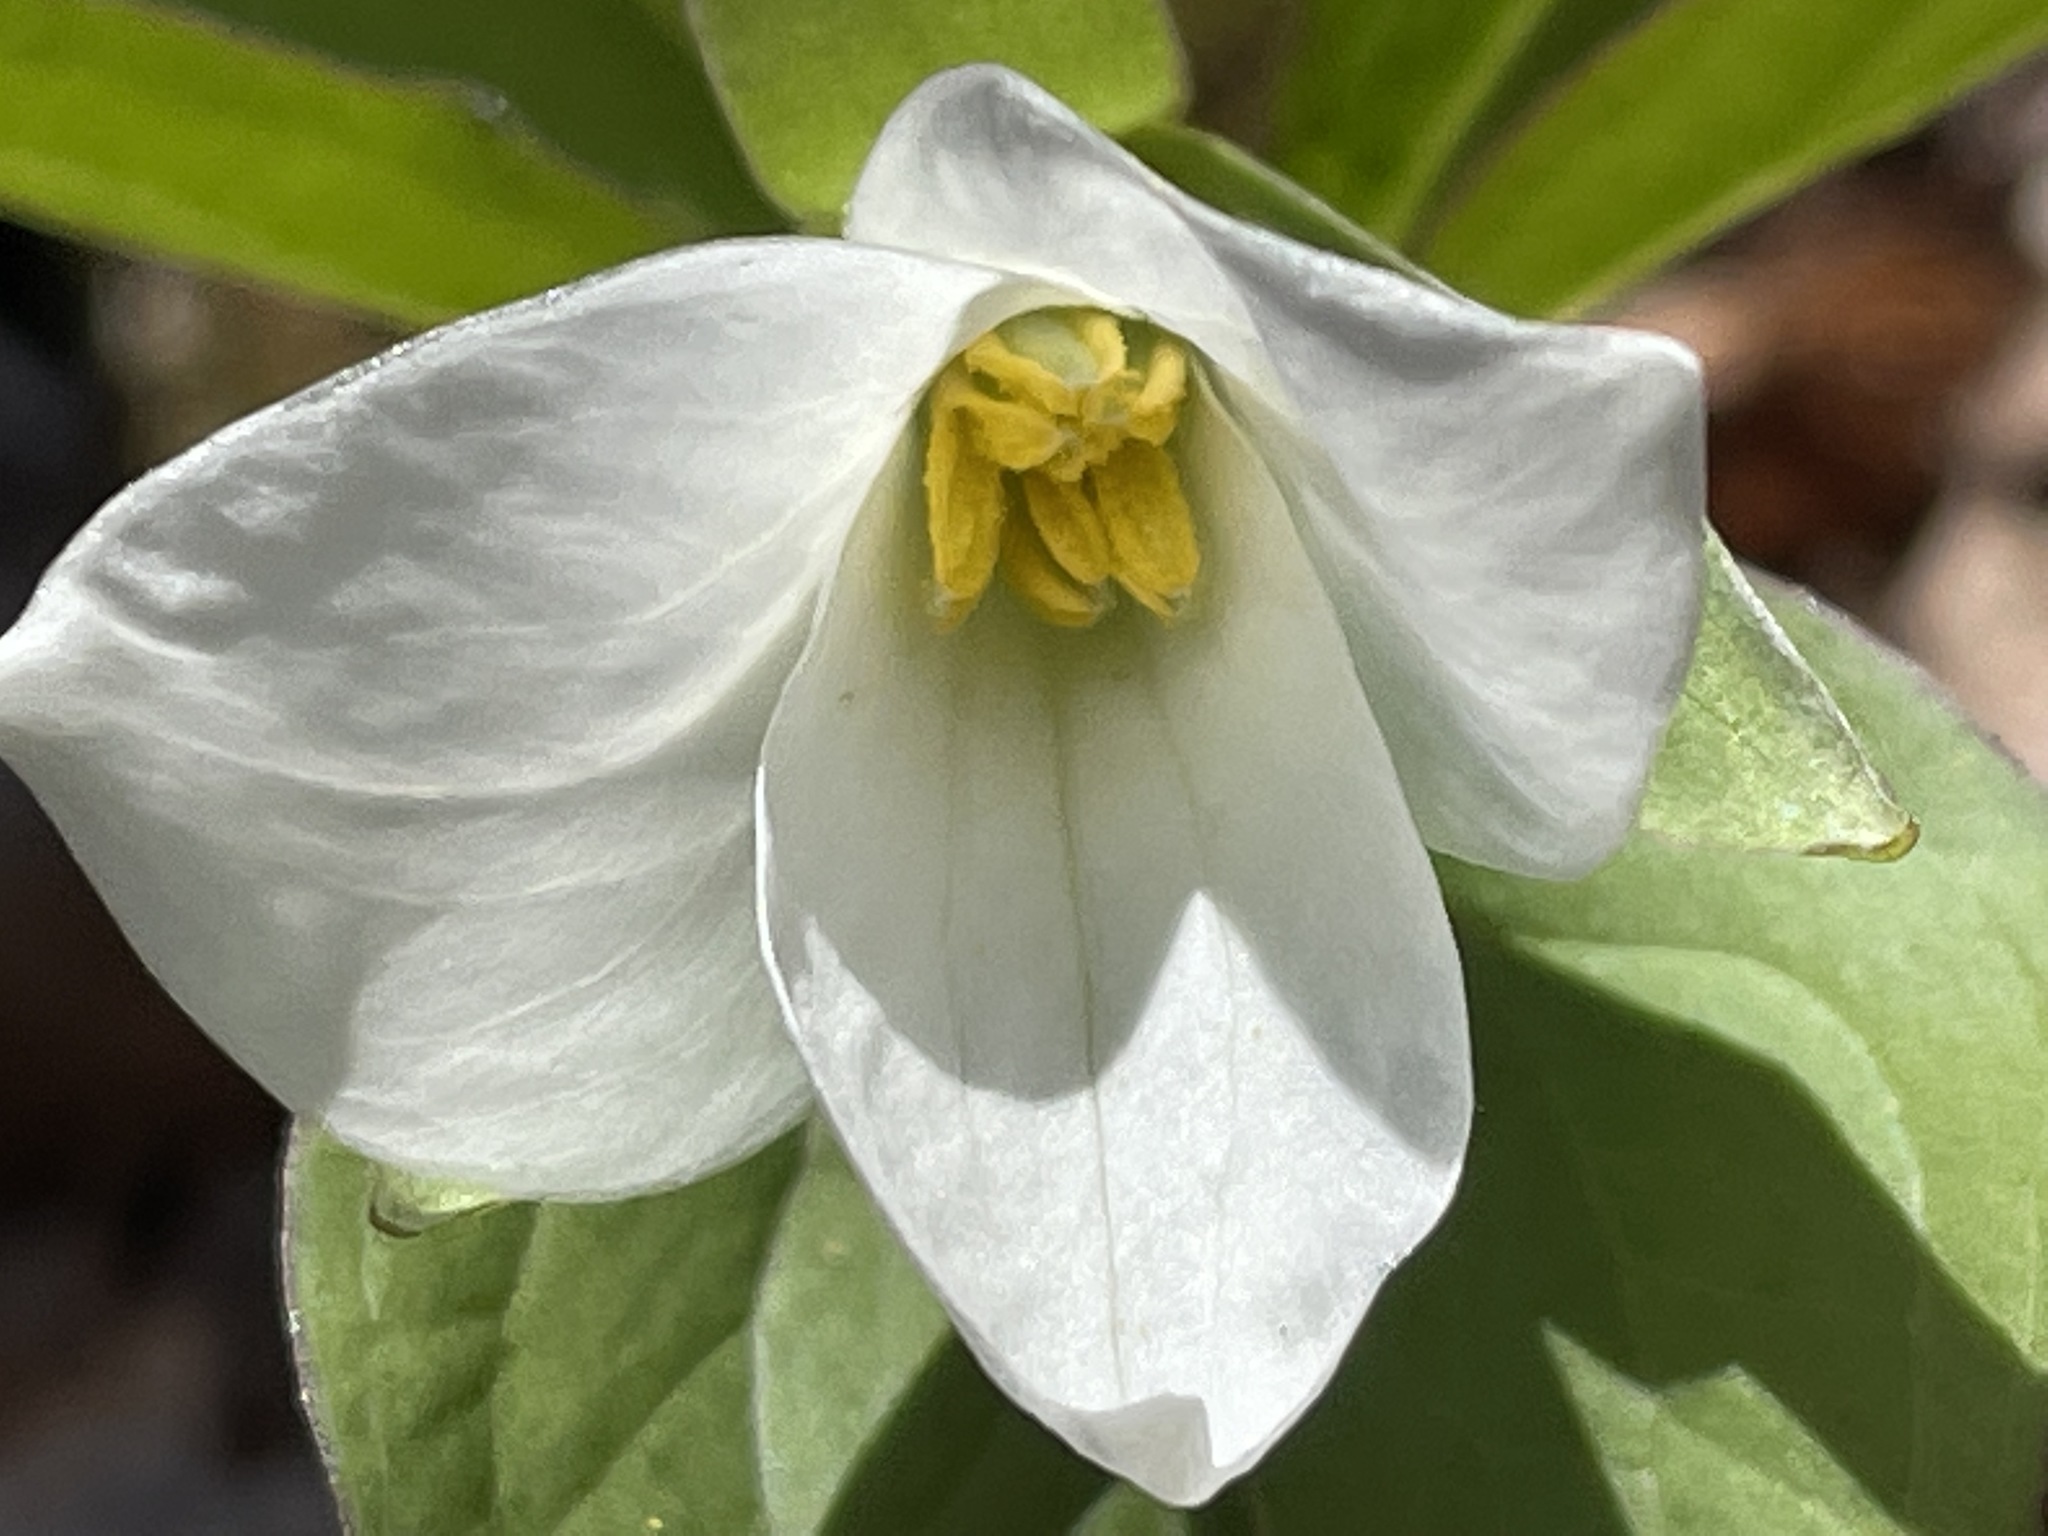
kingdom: Plantae
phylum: Tracheophyta
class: Liliopsida
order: Liliales
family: Melanthiaceae
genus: Trillium
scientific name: Trillium grandiflorum
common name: Great white trillium
